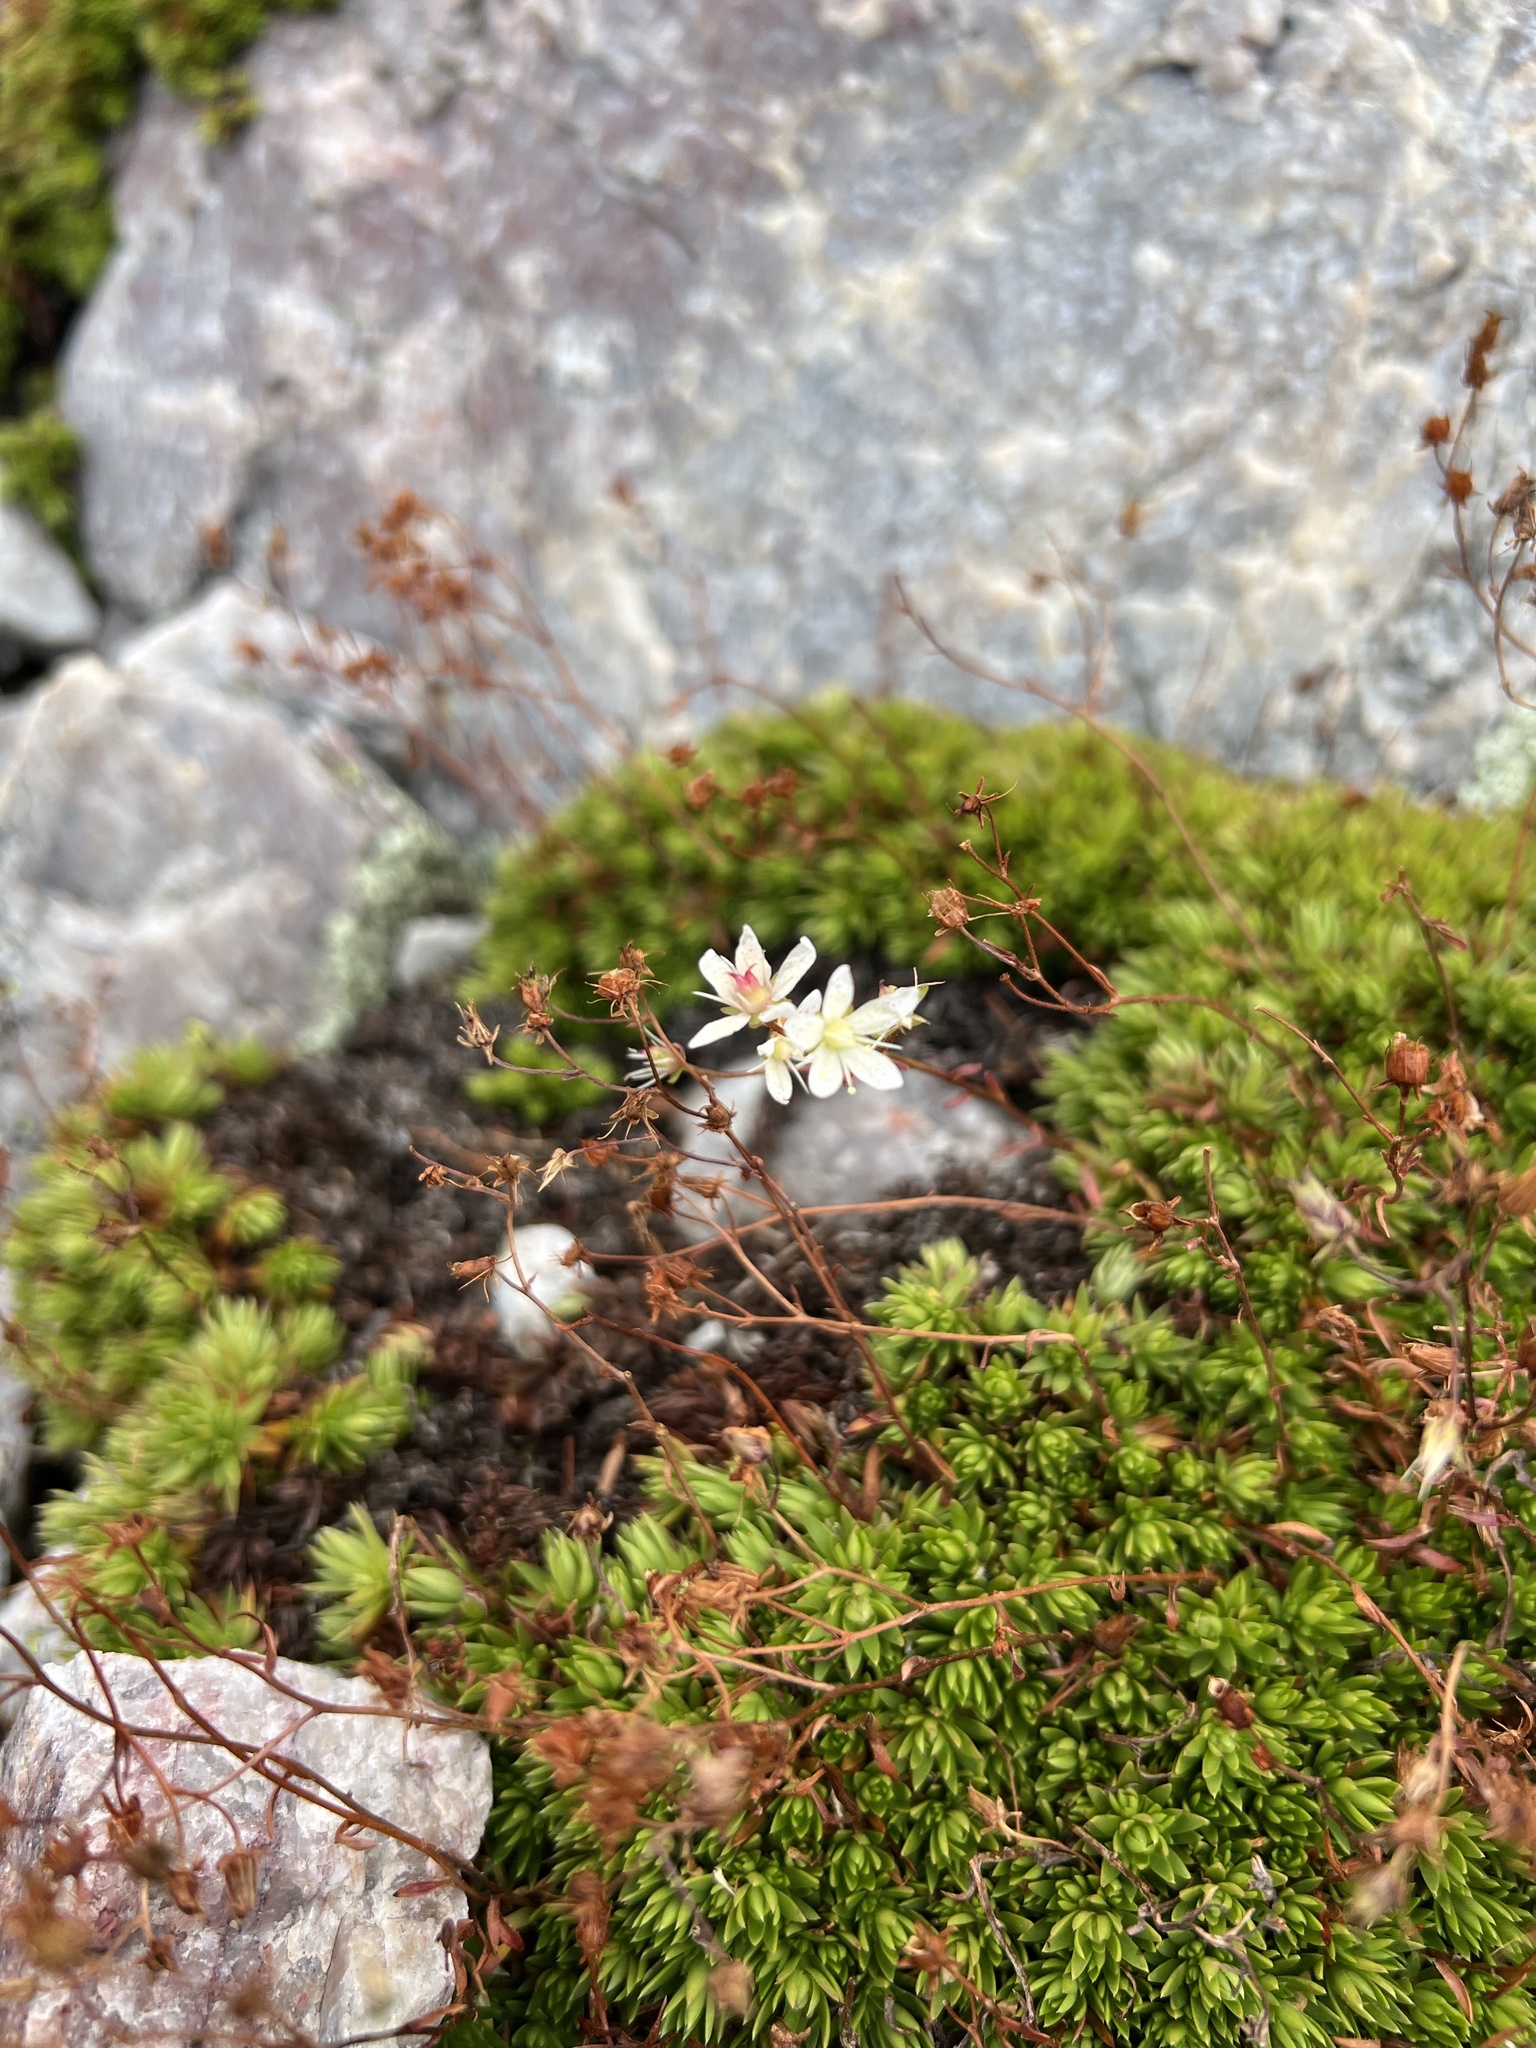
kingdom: Plantae
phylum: Tracheophyta
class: Magnoliopsida
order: Saxifragales
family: Saxifragaceae
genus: Saxifraga
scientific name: Saxifraga bronchialis
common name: Matted saxifrage
